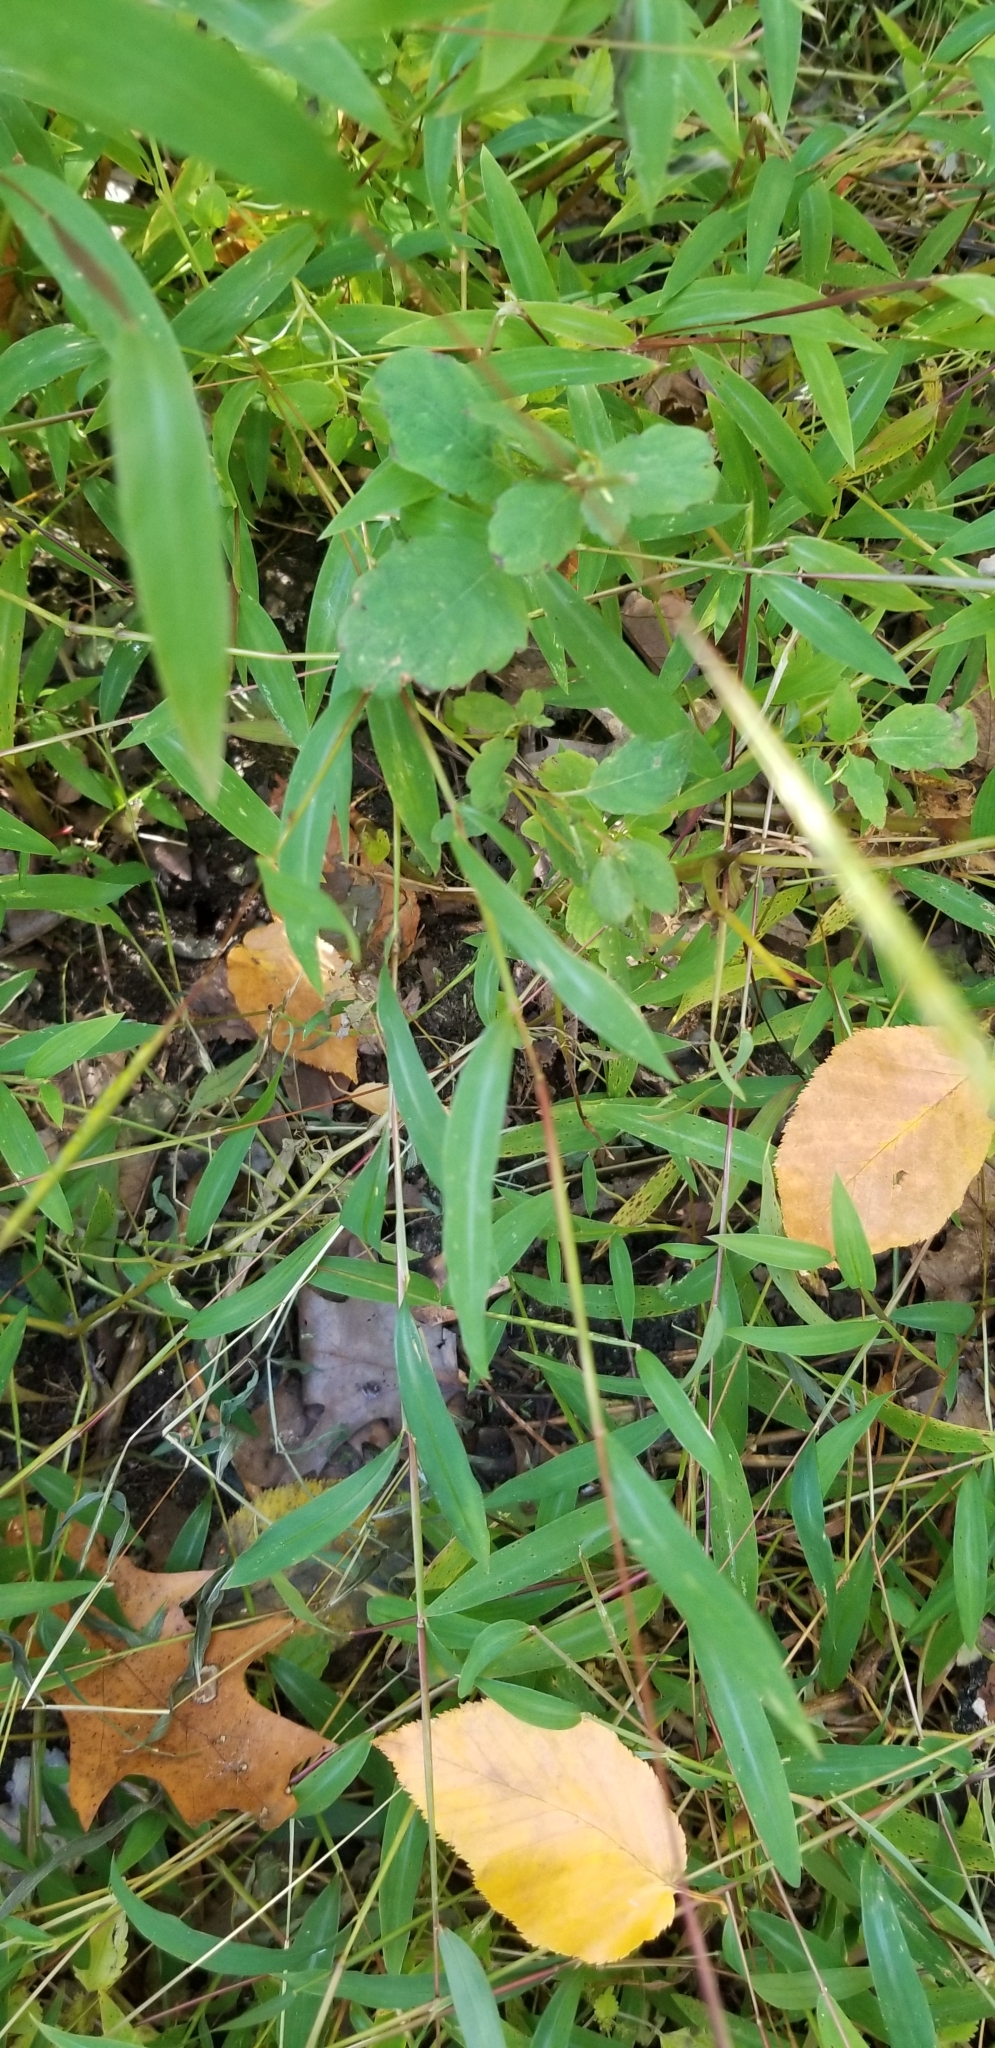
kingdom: Plantae
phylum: Tracheophyta
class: Liliopsida
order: Poales
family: Poaceae
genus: Microstegium
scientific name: Microstegium vimineum
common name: Japanese stiltgrass
